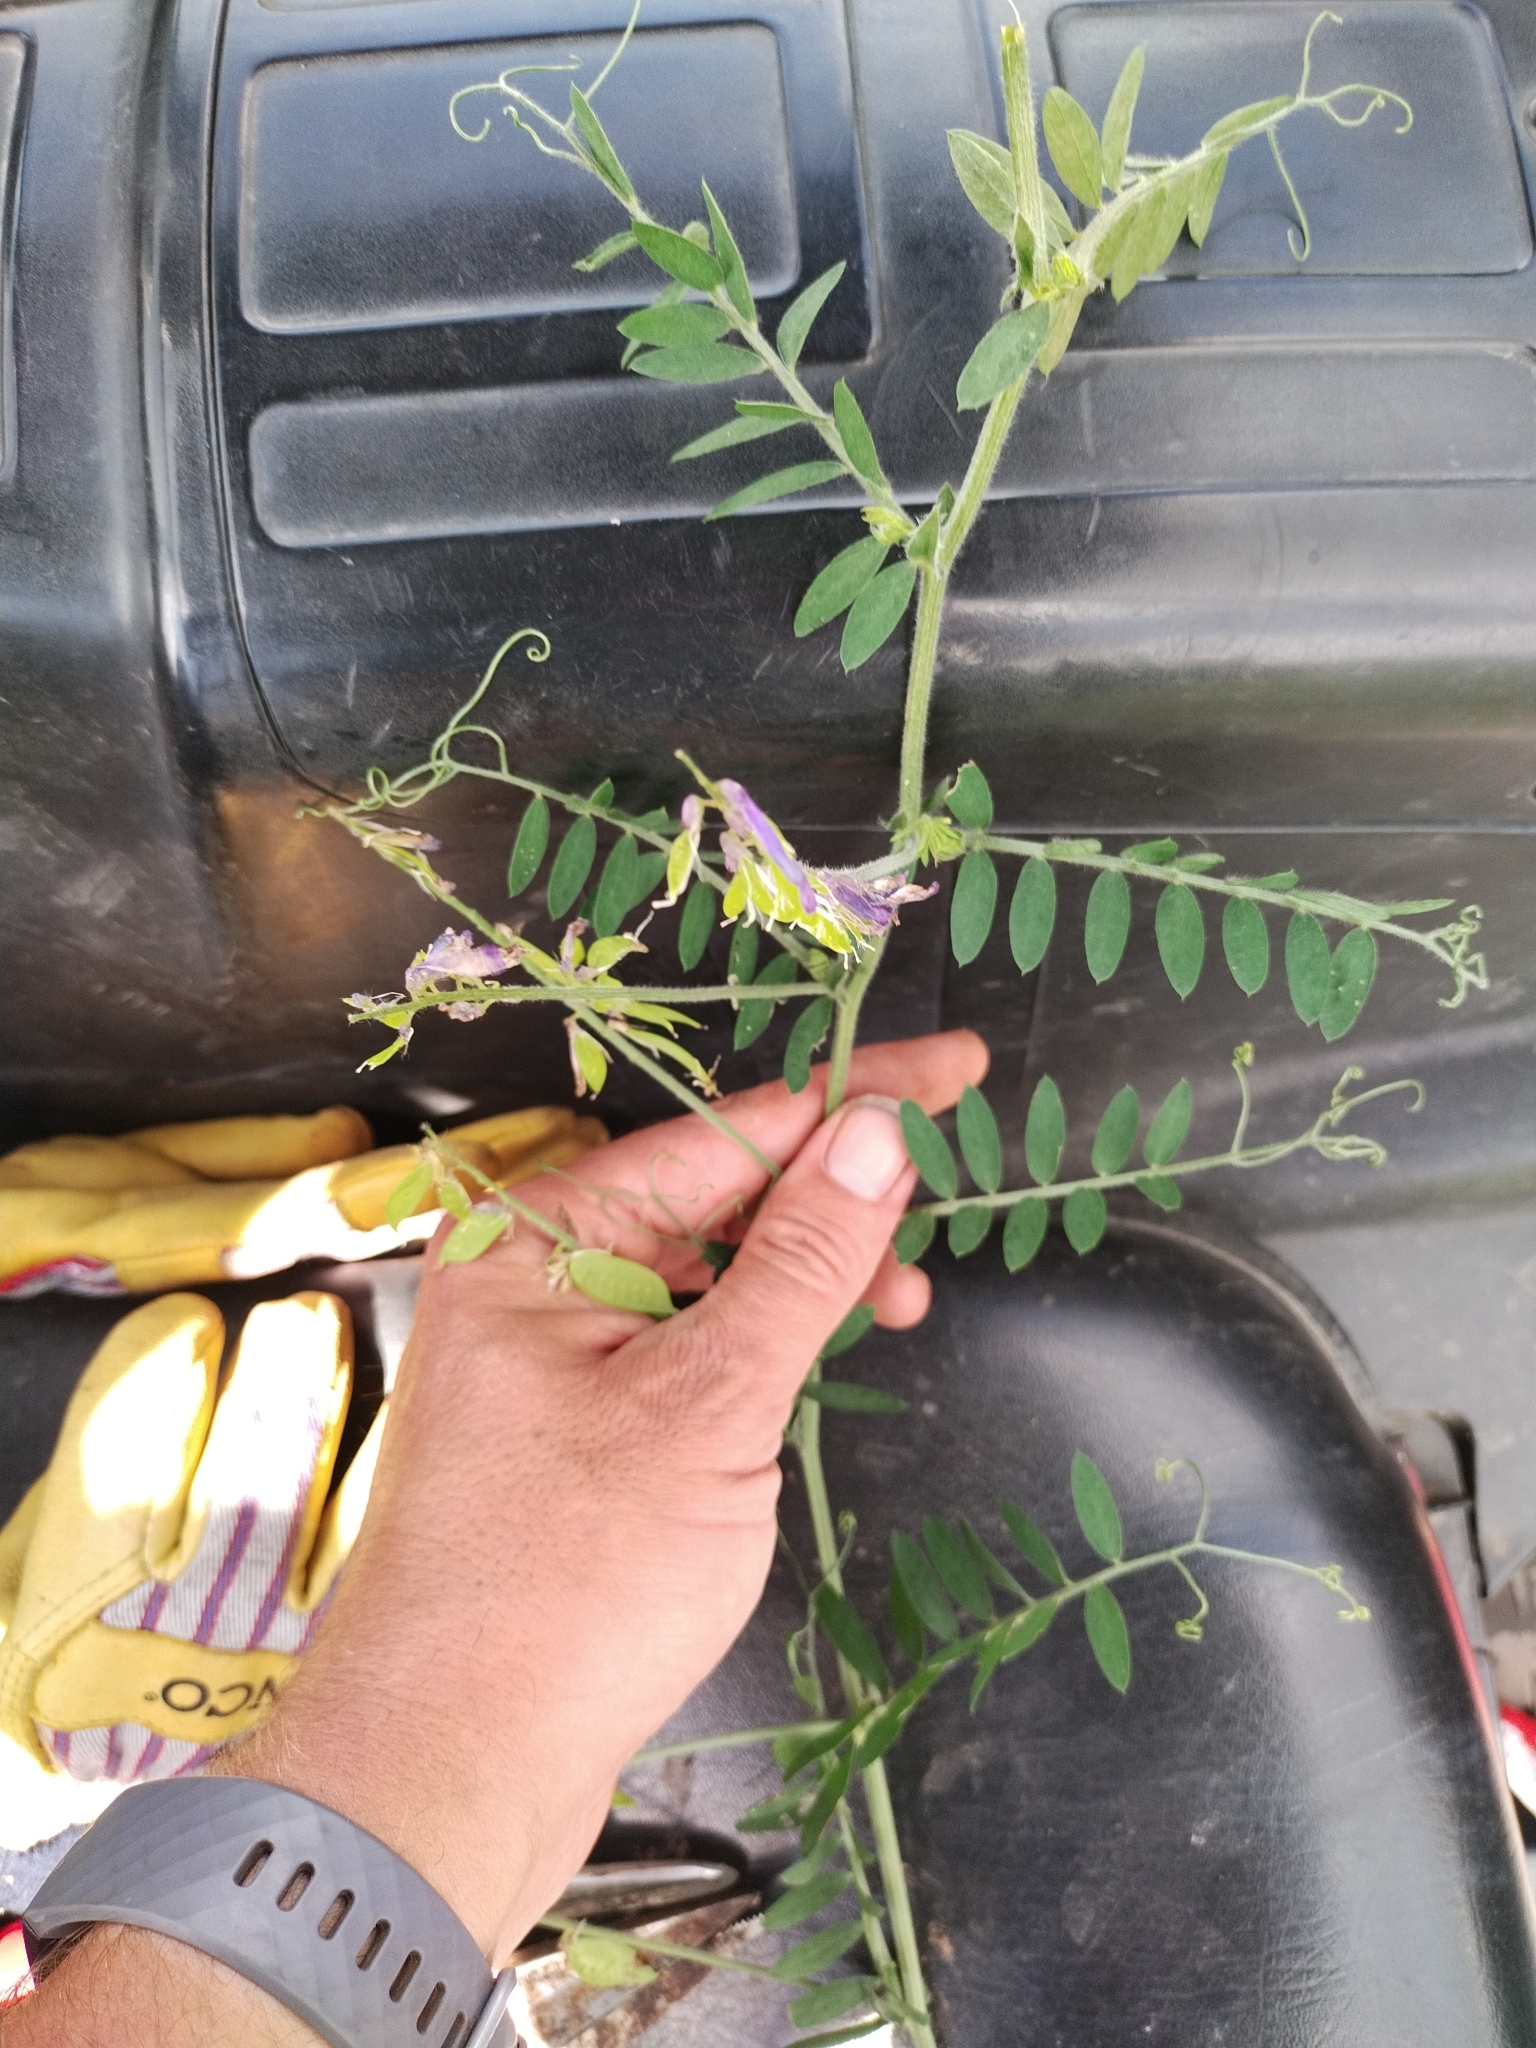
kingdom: Plantae
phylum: Tracheophyta
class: Magnoliopsida
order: Fabales
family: Fabaceae
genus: Vicia
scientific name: Vicia villosa
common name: Fodder vetch
